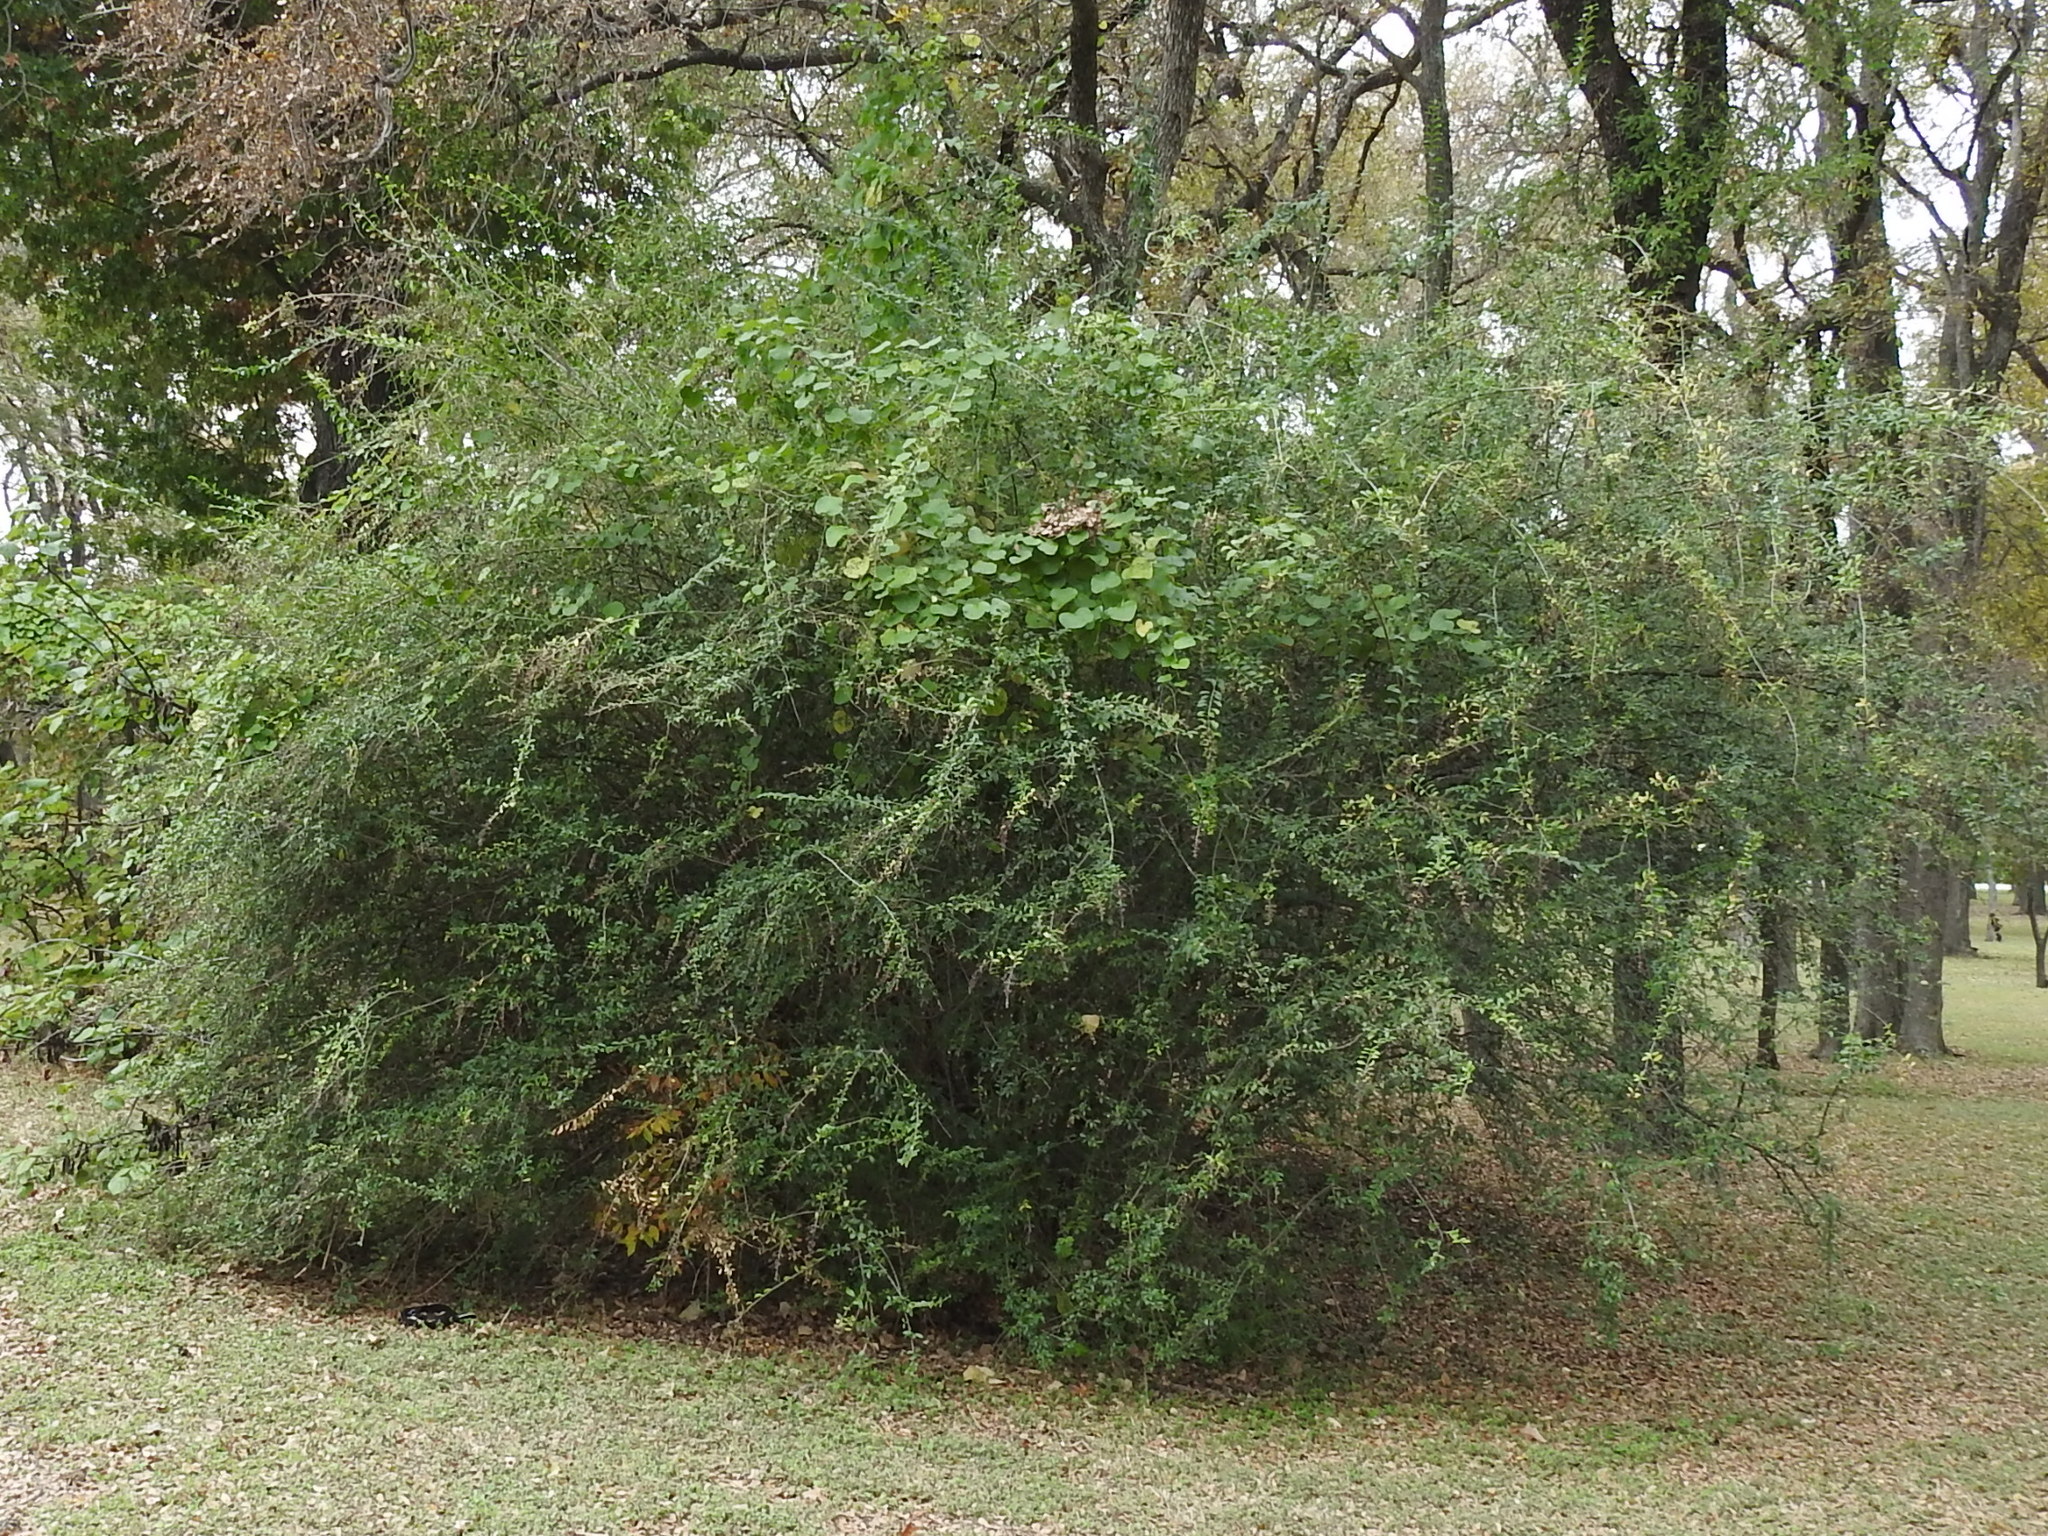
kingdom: Plantae
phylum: Tracheophyta
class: Magnoliopsida
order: Lamiales
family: Oleaceae
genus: Ligustrum
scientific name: Ligustrum quihoui
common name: Waxyleaf privet
